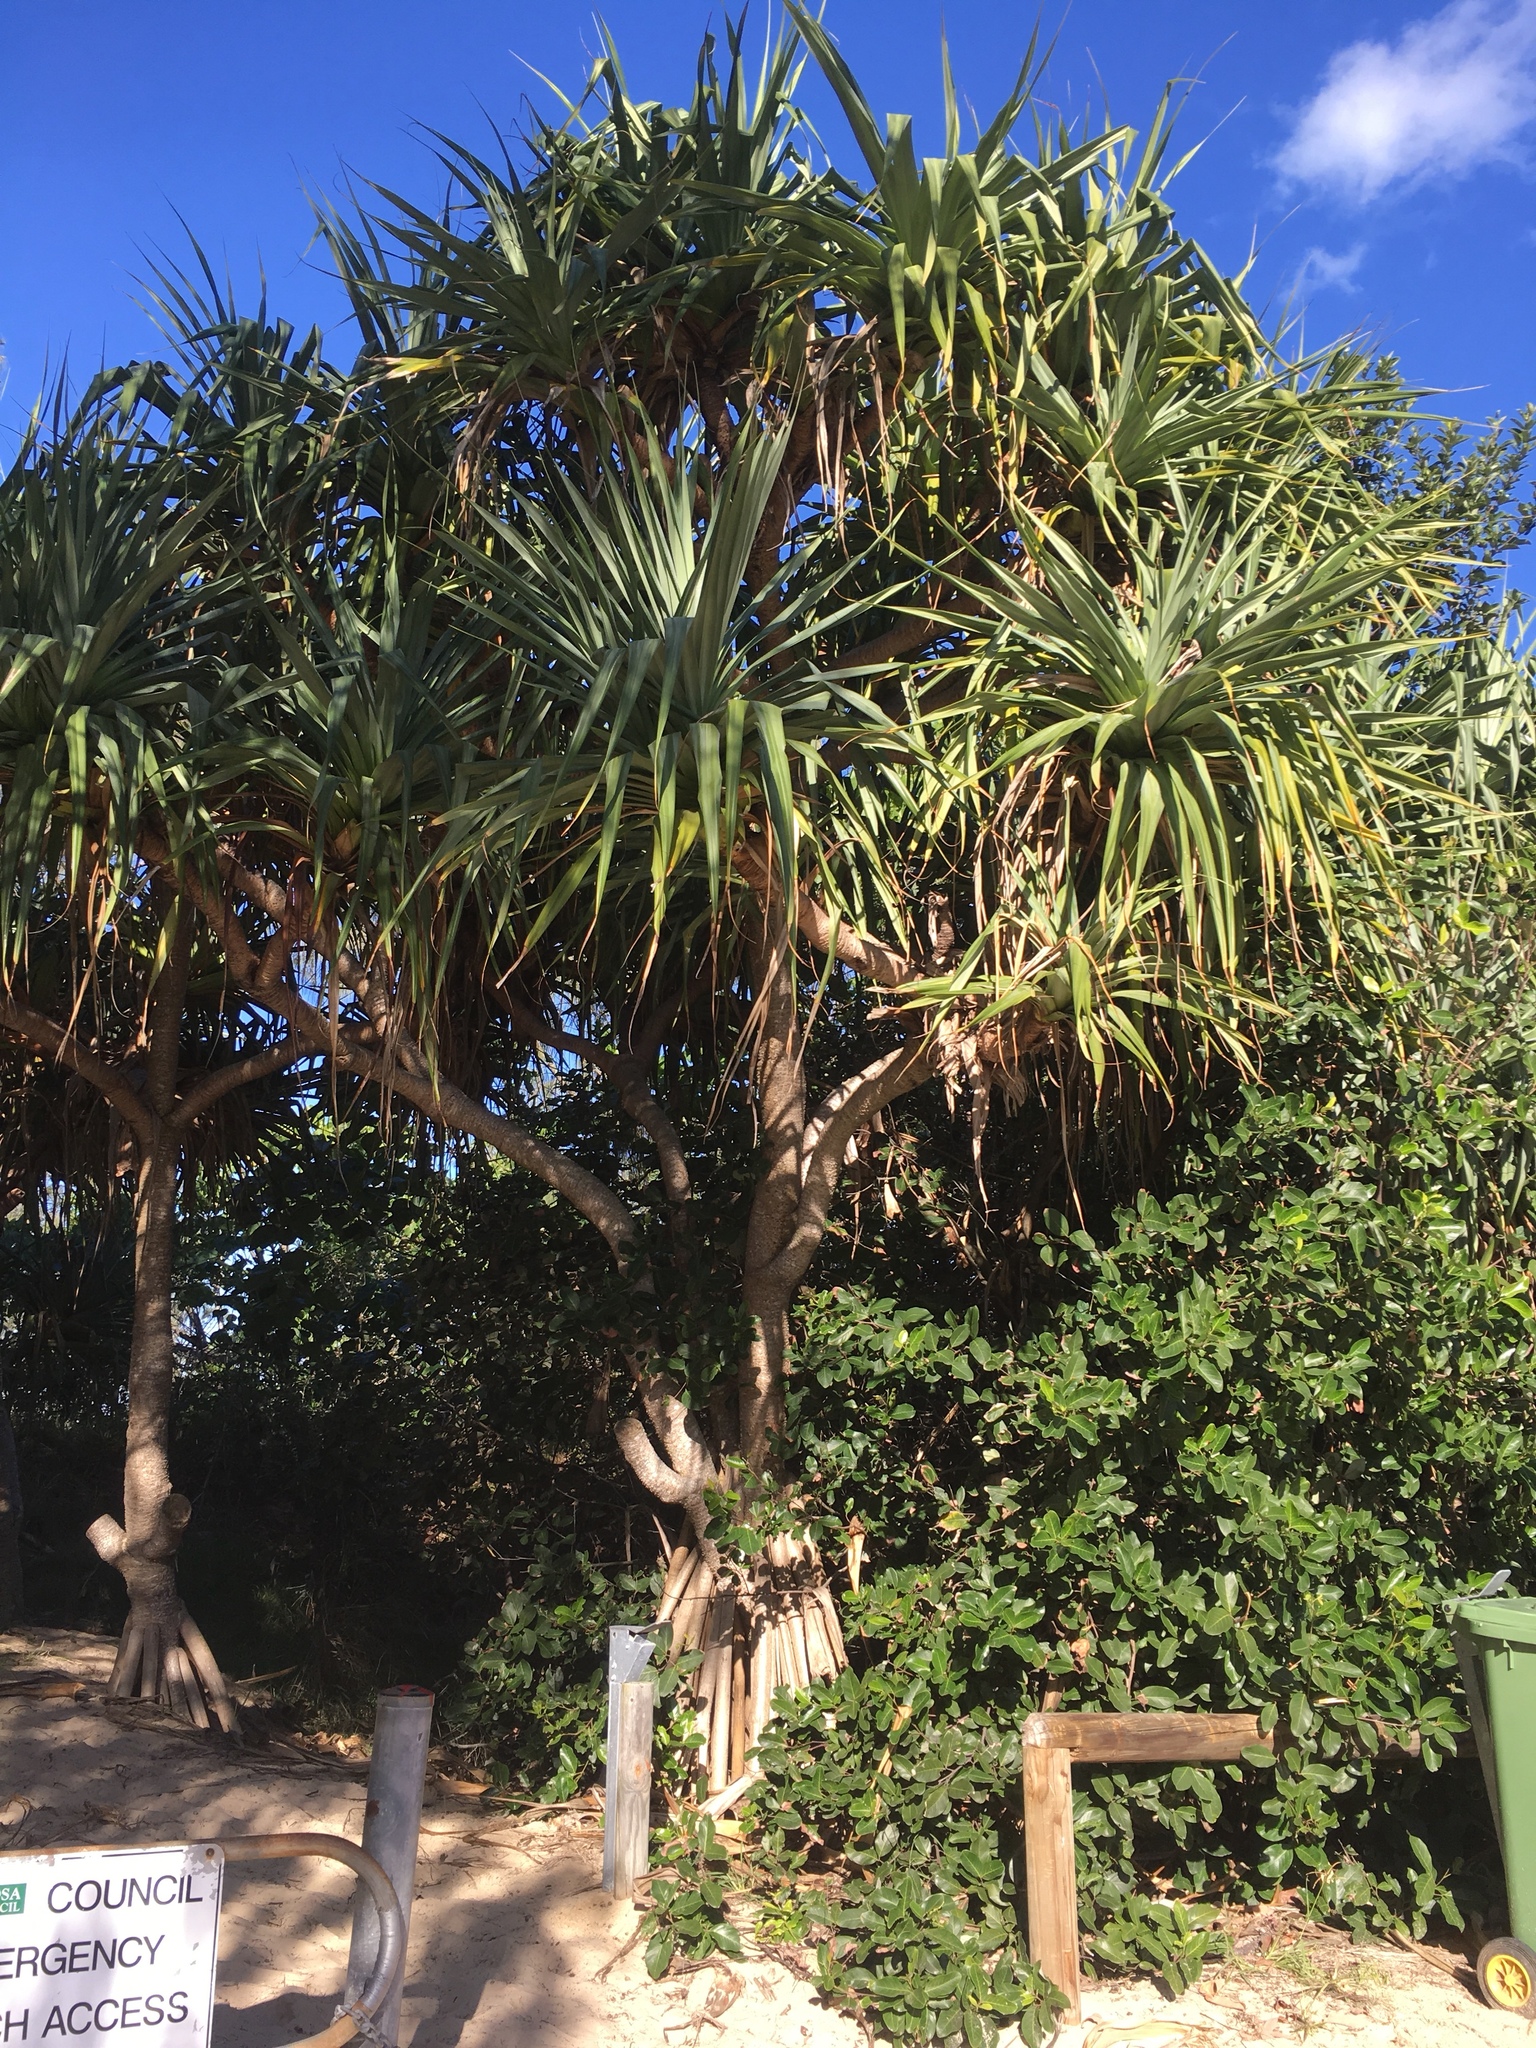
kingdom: Plantae
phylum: Tracheophyta
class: Liliopsida
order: Pandanales
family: Pandanaceae
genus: Pandanus
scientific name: Pandanus tectorius
